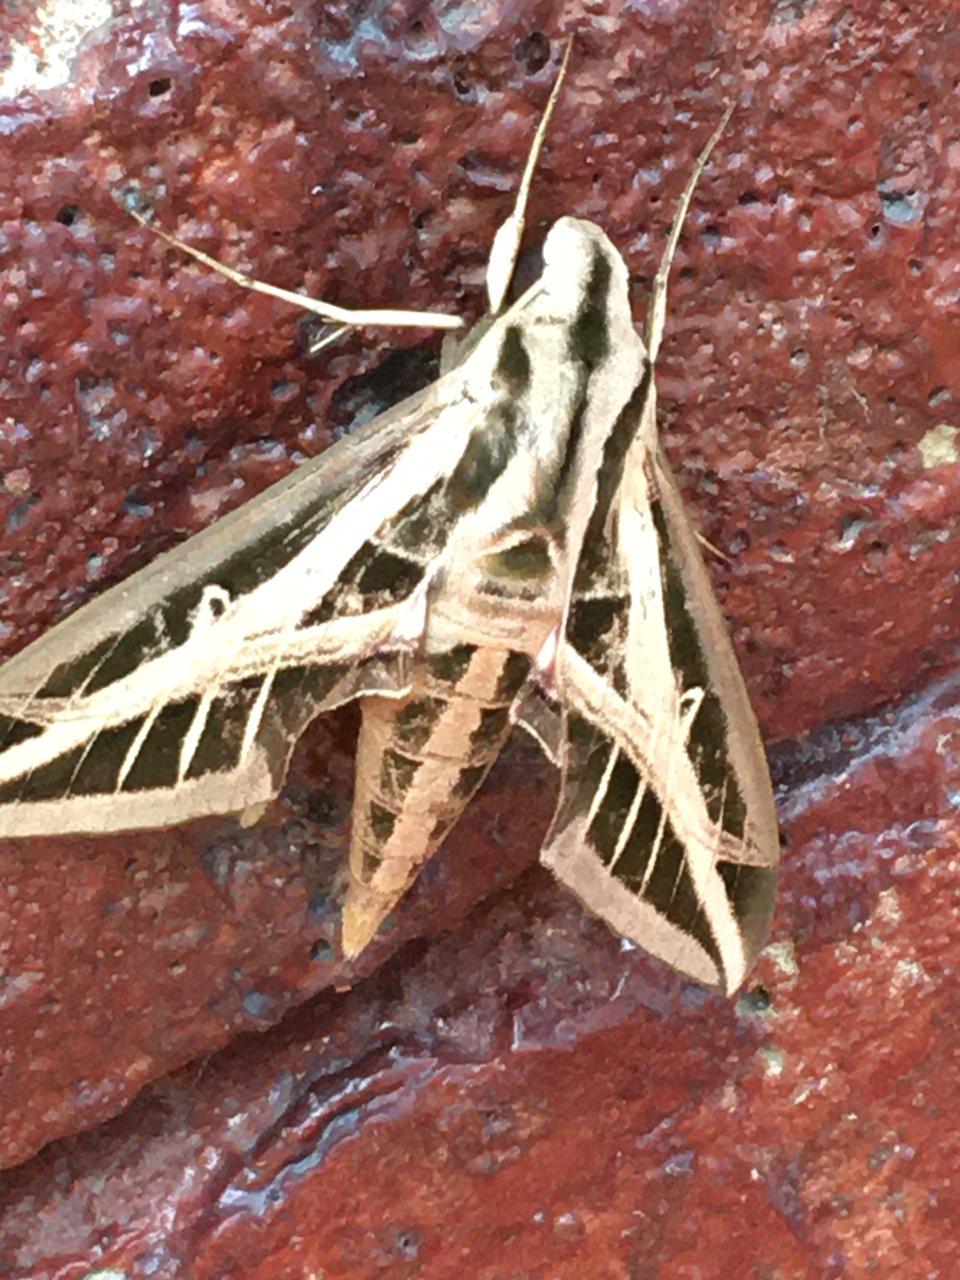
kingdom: Animalia
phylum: Arthropoda
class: Insecta
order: Lepidoptera
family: Sphingidae
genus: Eumorpha
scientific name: Eumorpha fasciatus
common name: Banded sphinx
